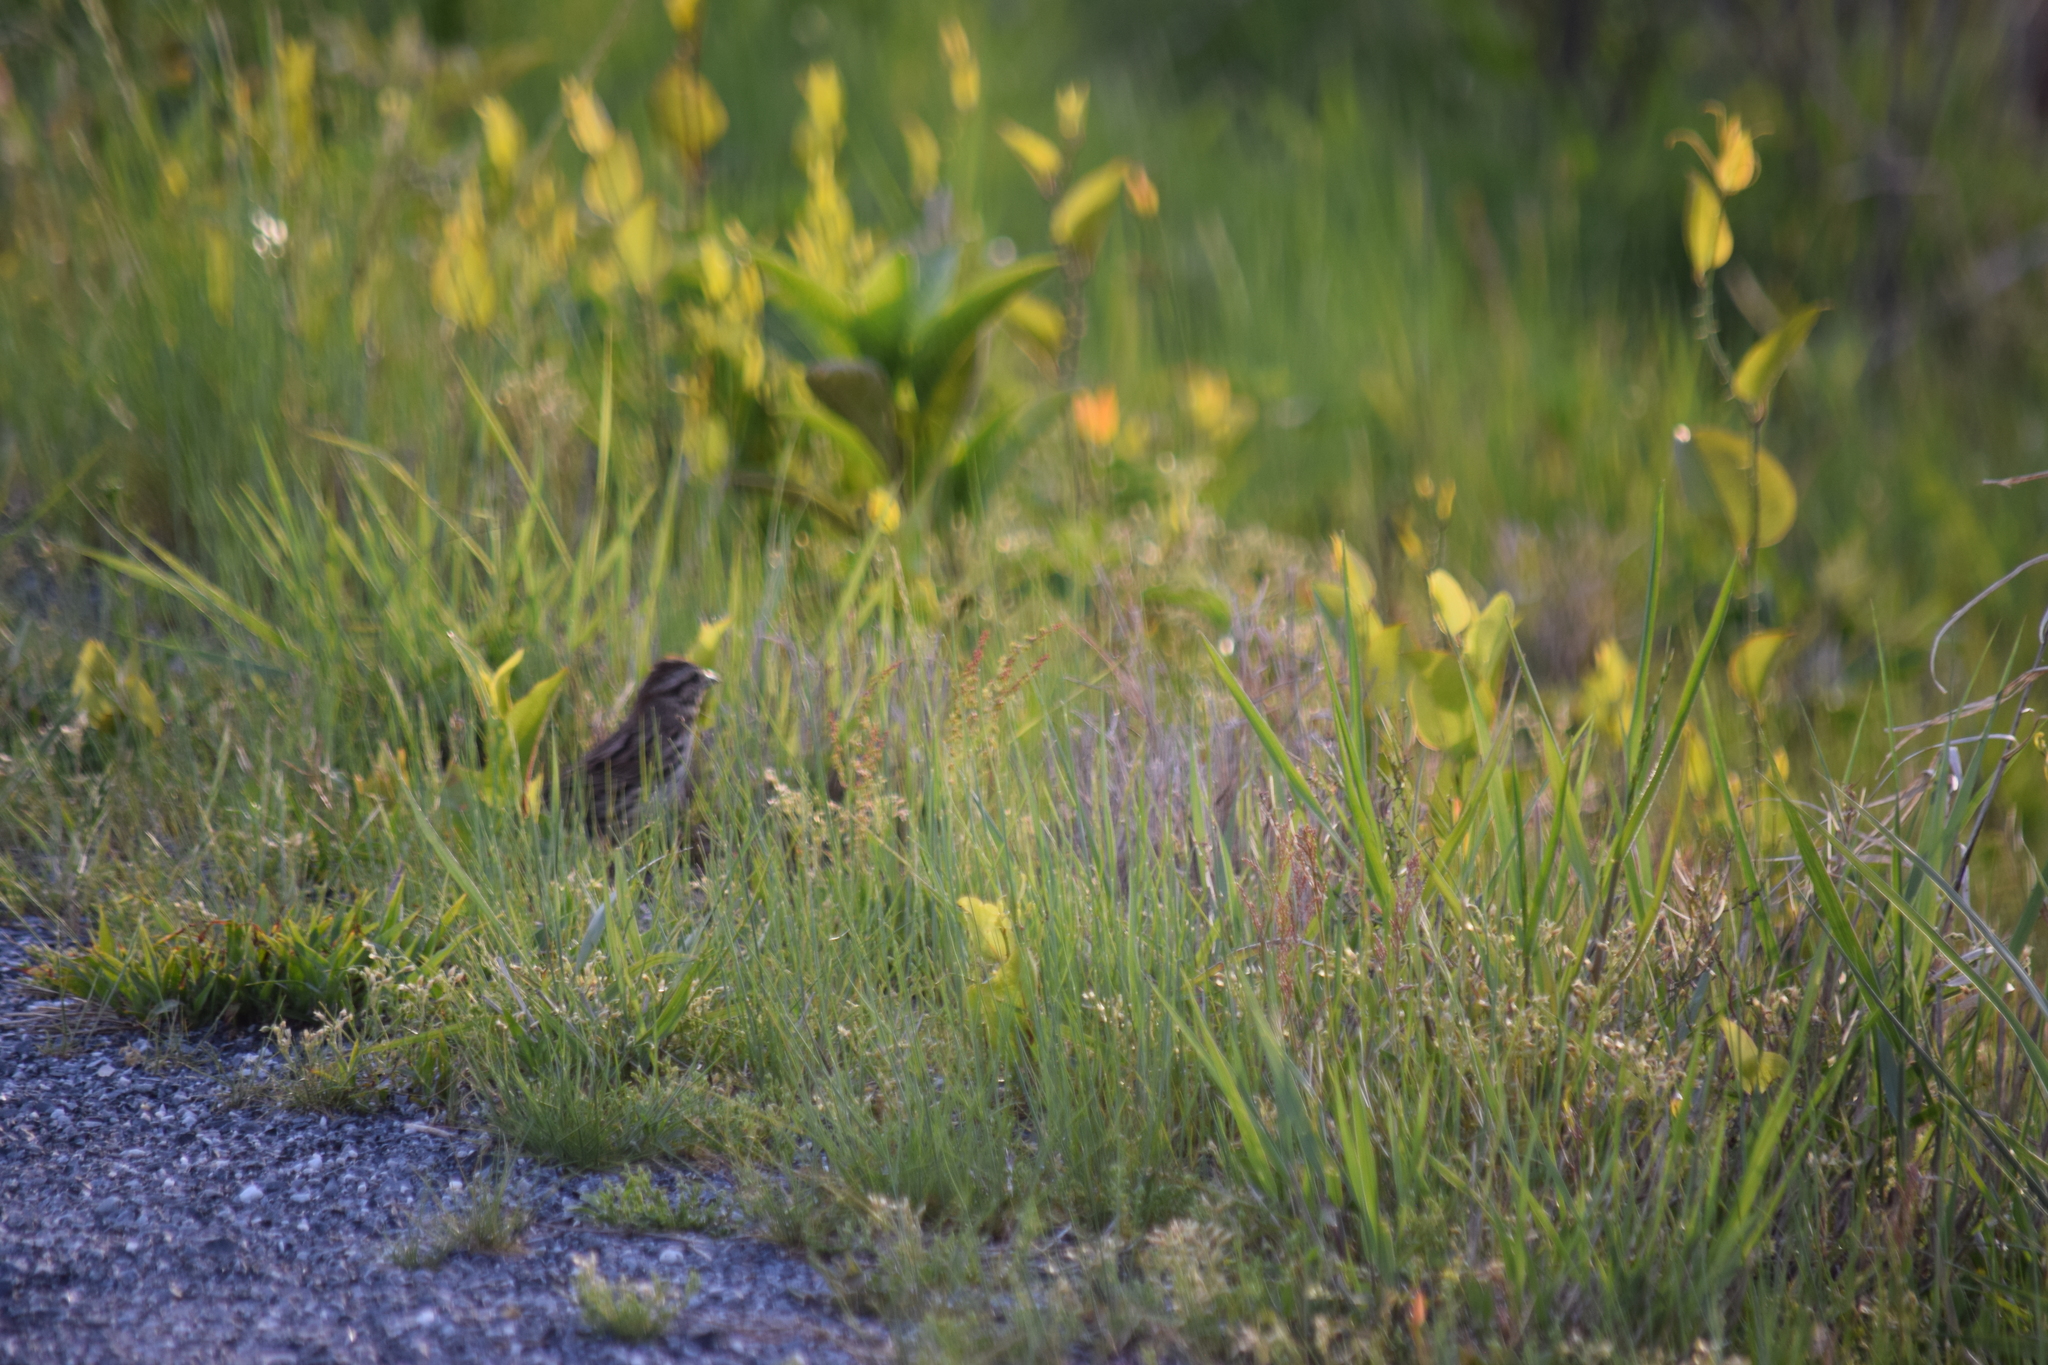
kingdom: Animalia
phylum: Chordata
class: Aves
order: Passeriformes
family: Passerellidae
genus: Melospiza
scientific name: Melospiza melodia
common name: Song sparrow
